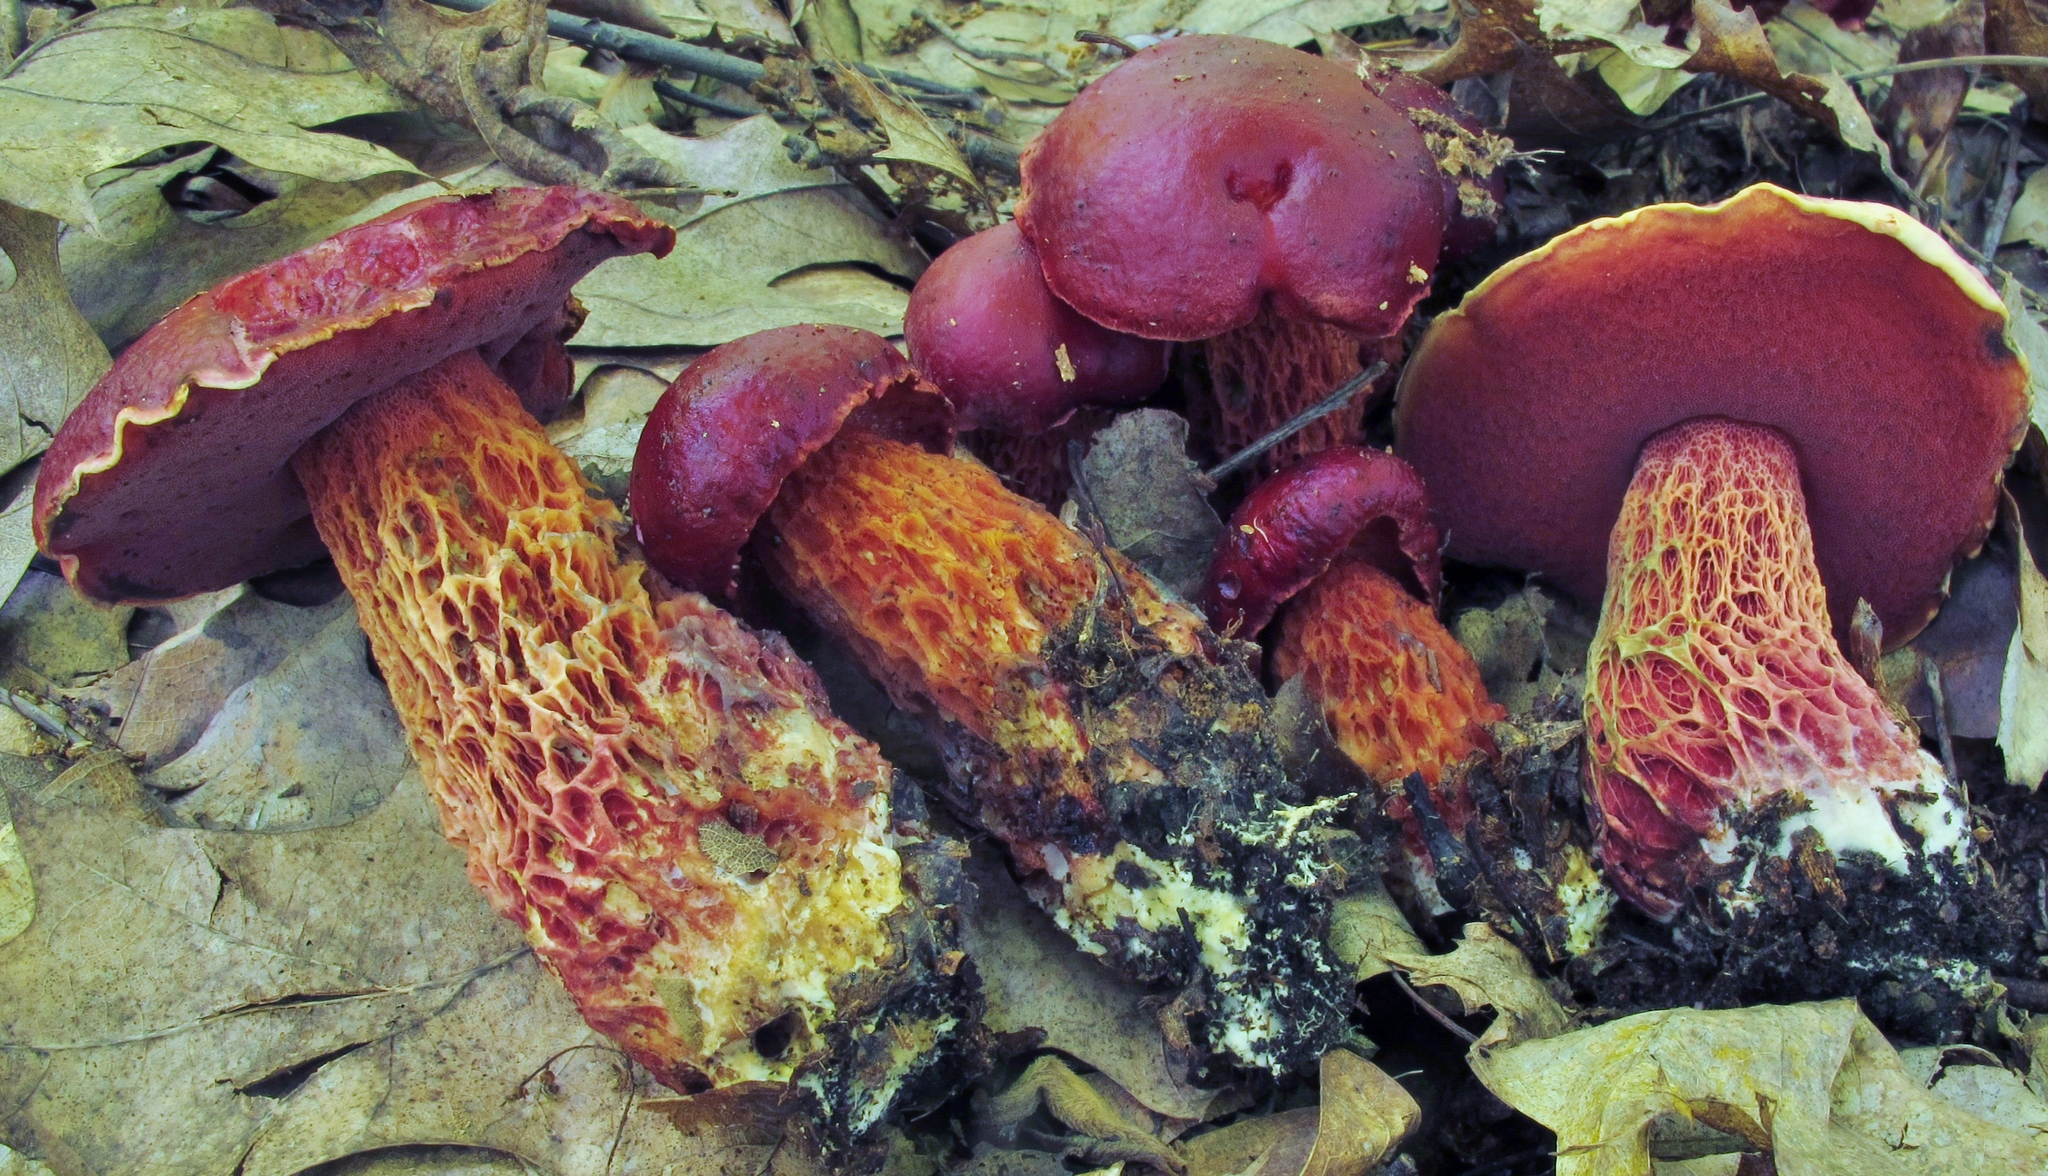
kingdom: Fungi
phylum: Basidiomycota
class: Agaricomycetes
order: Boletales
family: Boletaceae
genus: Butyriboletus
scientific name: Butyriboletus frostii
